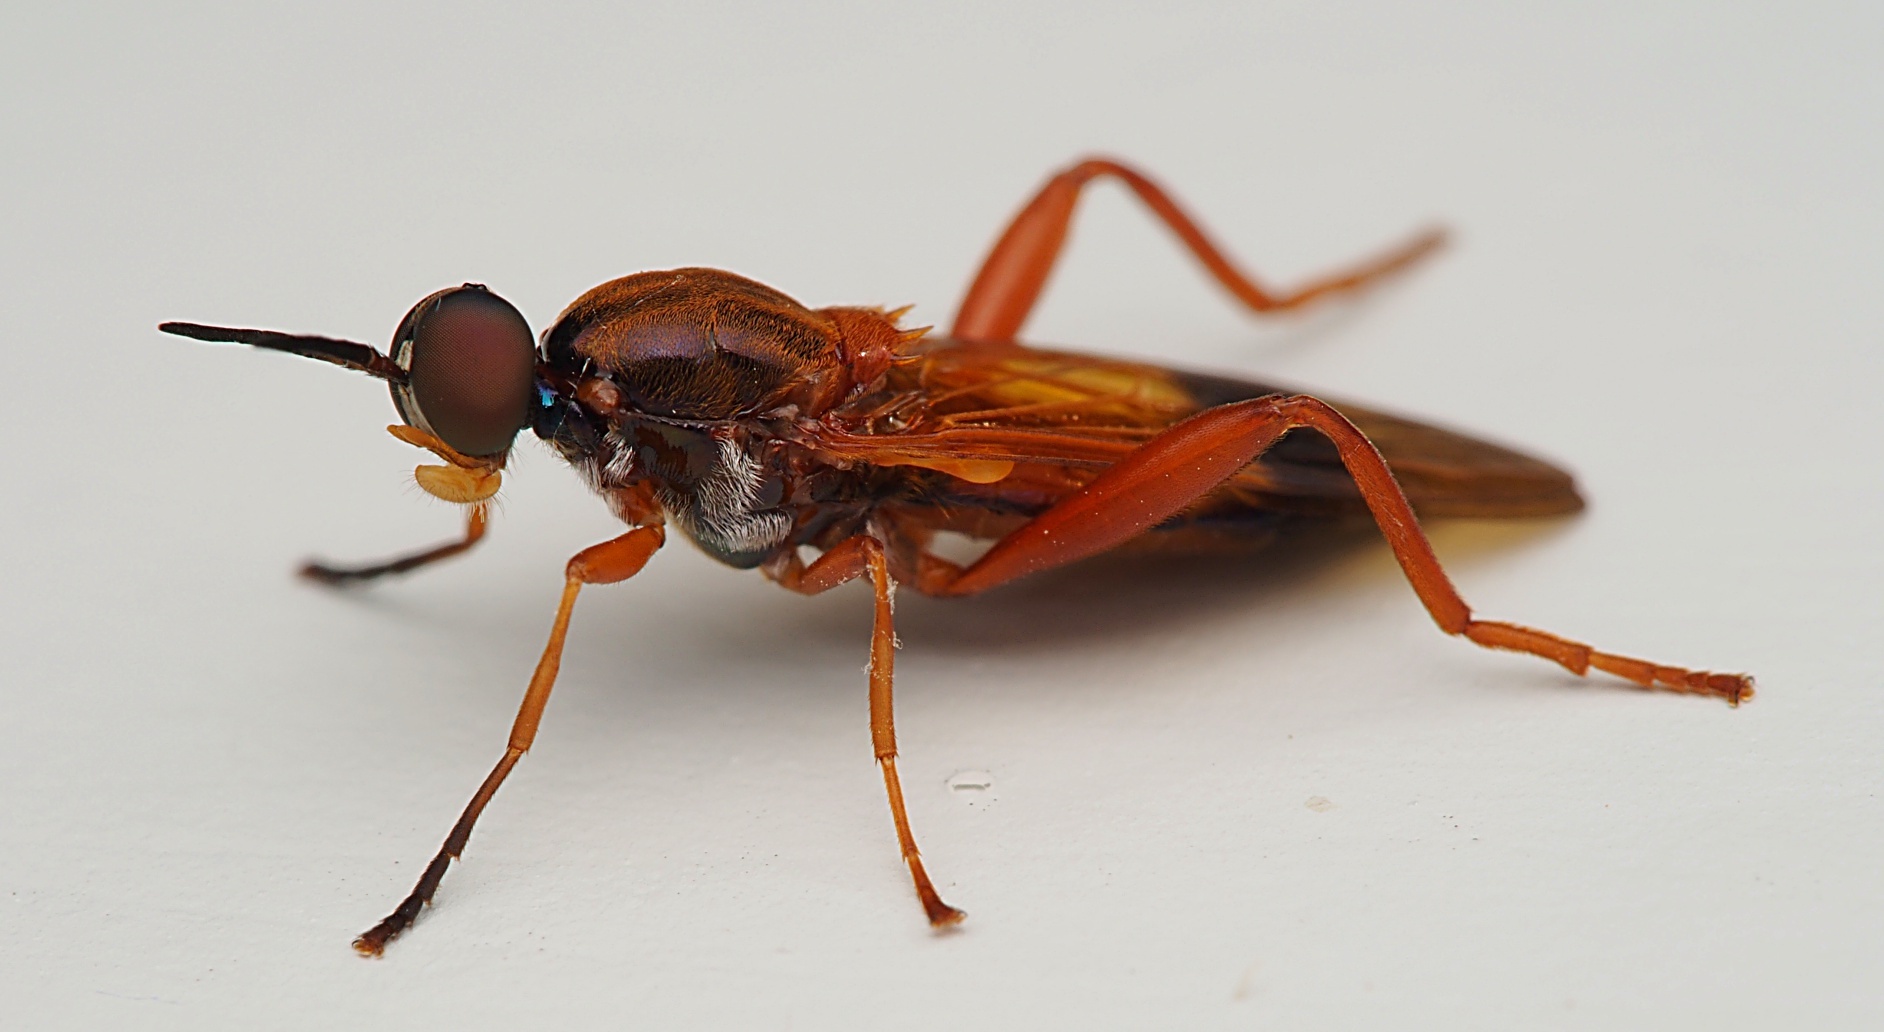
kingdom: Animalia
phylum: Arthropoda
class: Insecta
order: Diptera
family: Stratiomyidae
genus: Benhamyia
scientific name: Benhamyia apicalis
